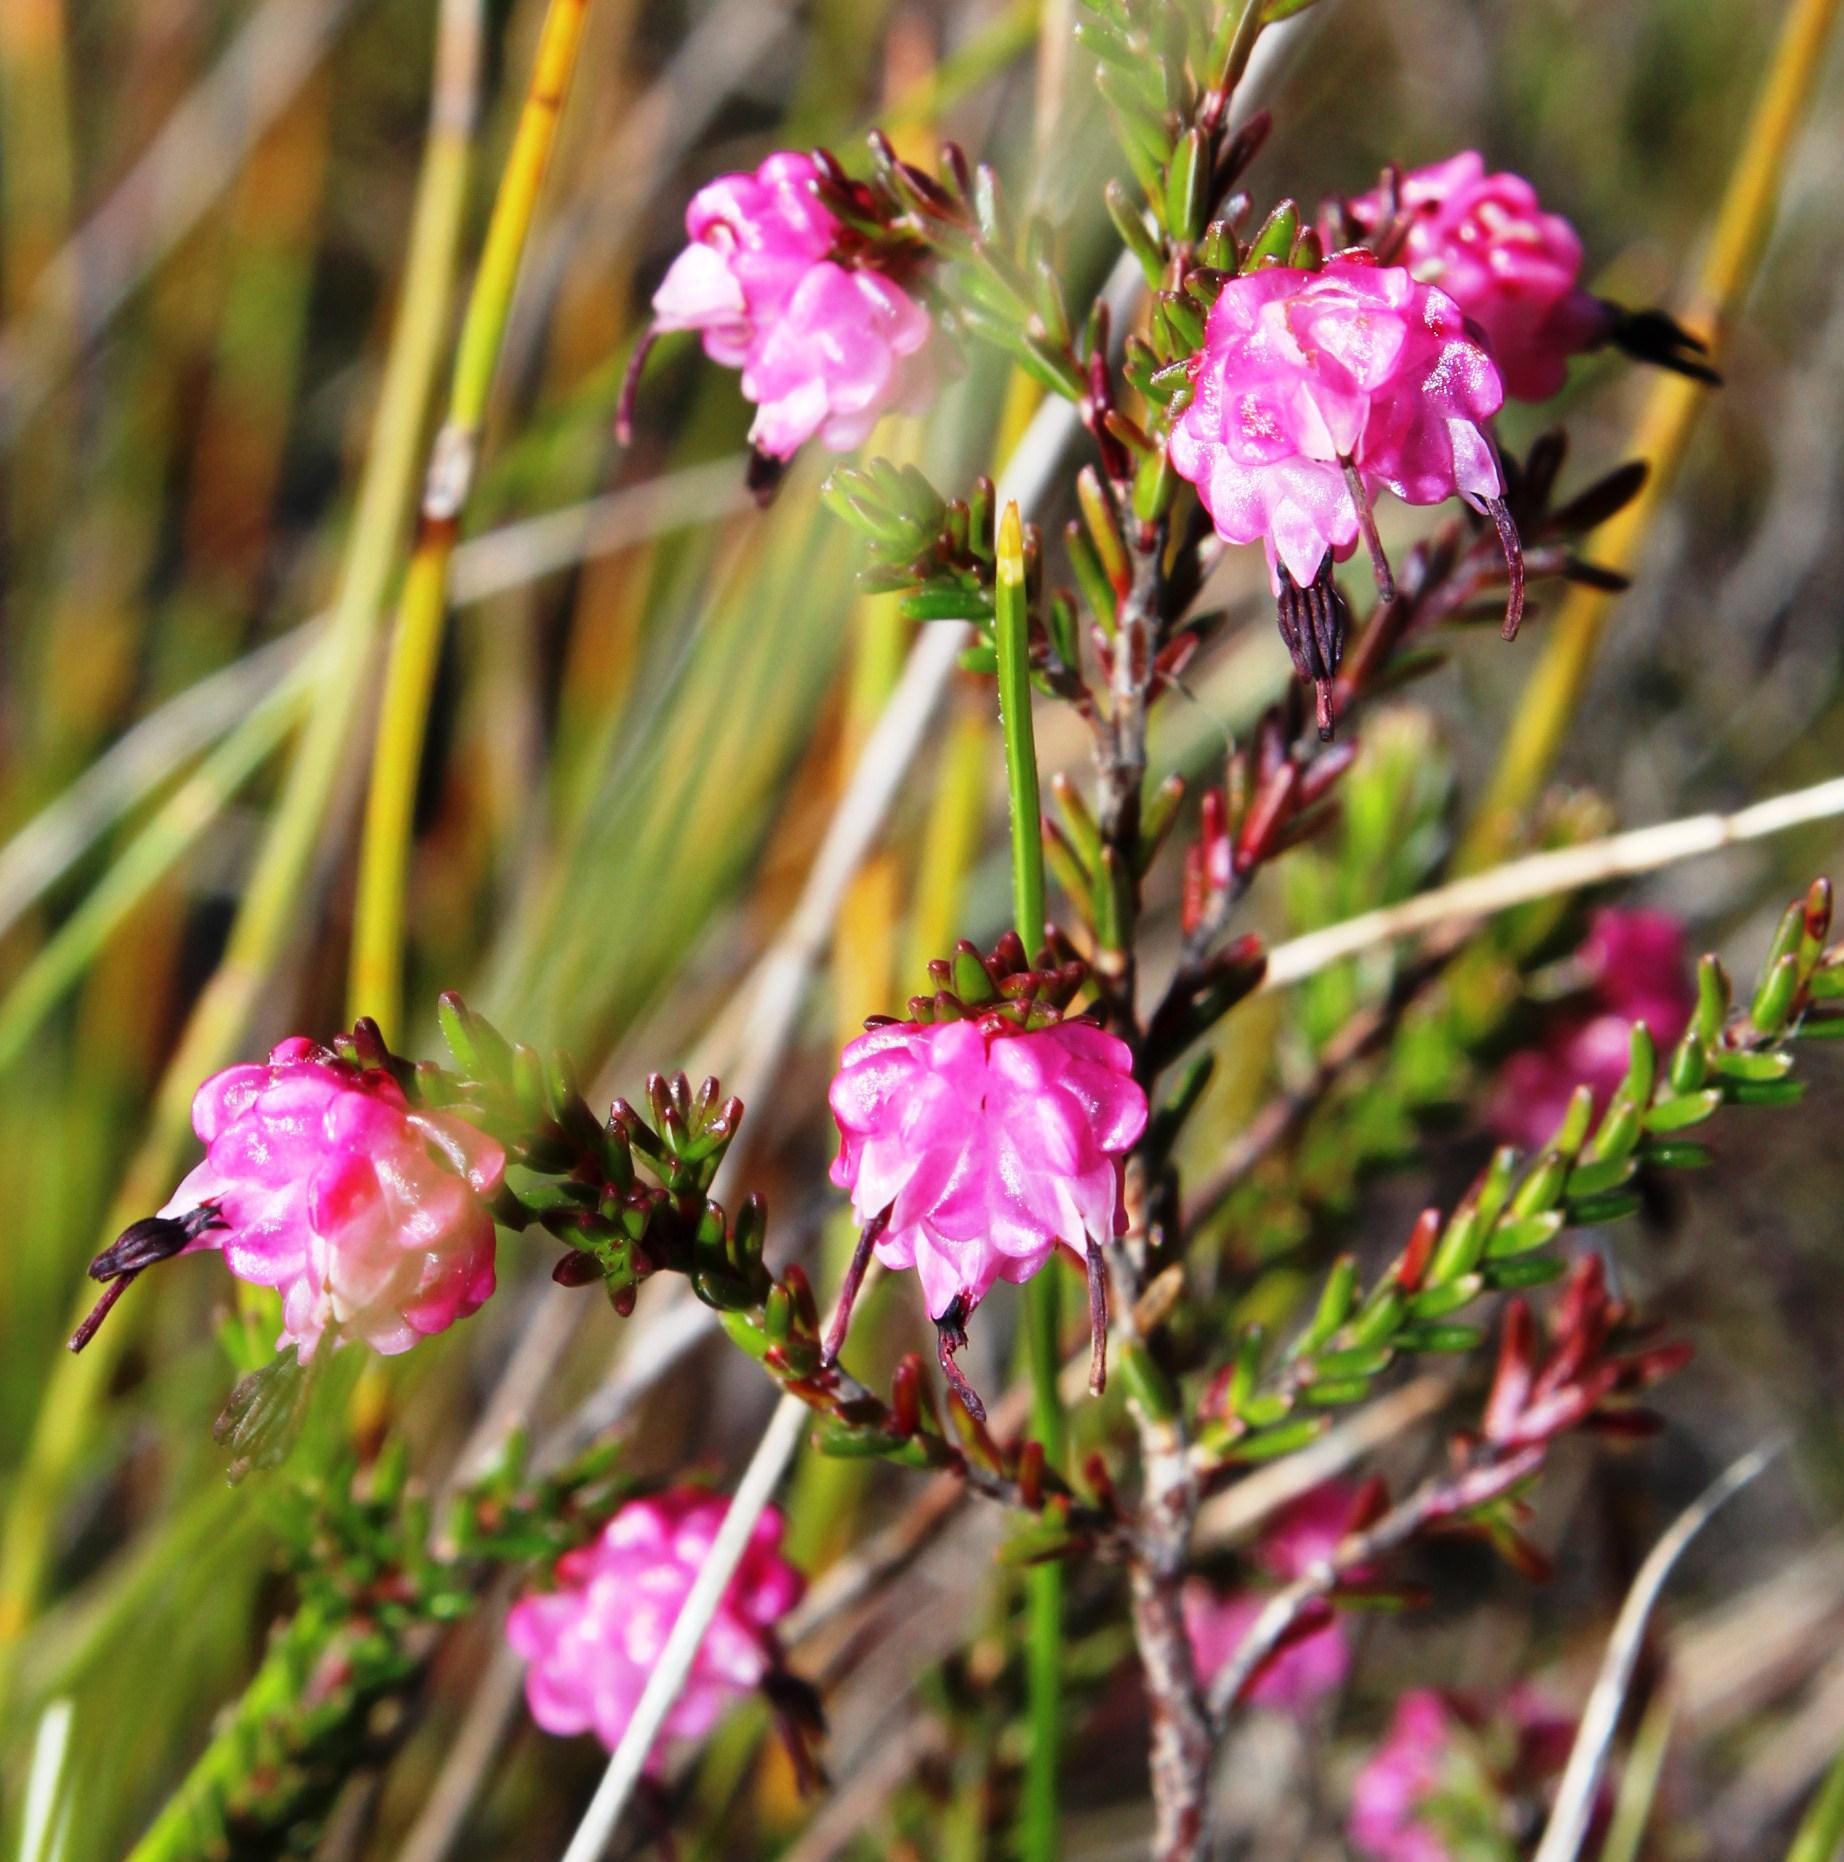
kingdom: Plantae
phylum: Tracheophyta
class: Magnoliopsida
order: Ericales
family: Ericaceae
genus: Erica
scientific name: Erica spumosa
